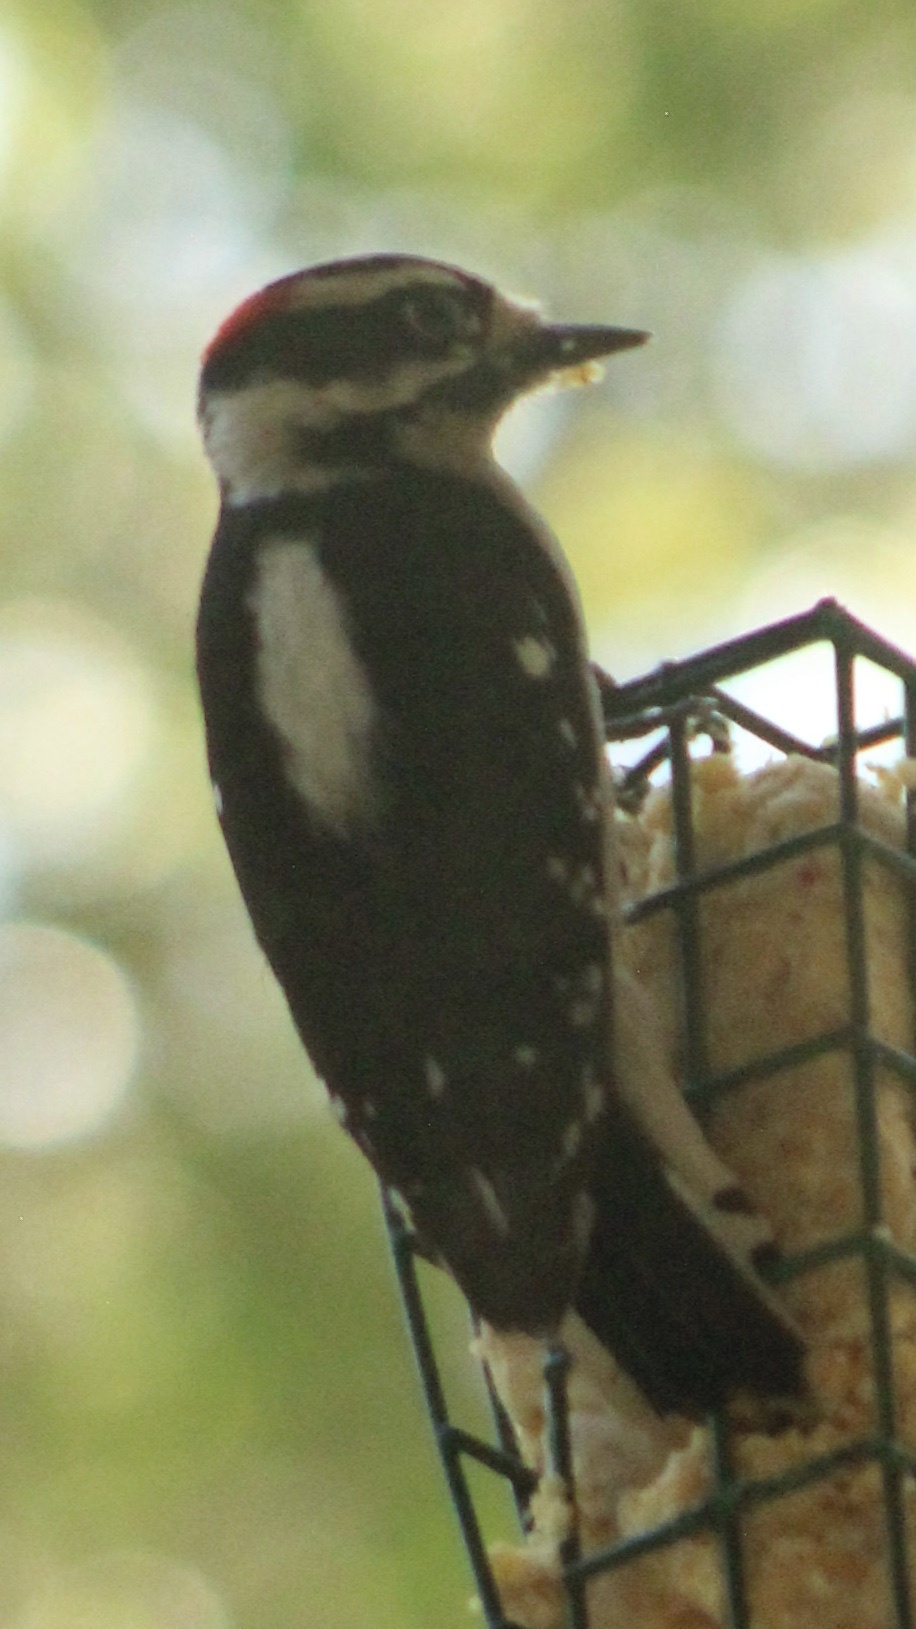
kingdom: Animalia
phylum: Chordata
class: Aves
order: Piciformes
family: Picidae
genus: Dryobates
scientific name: Dryobates pubescens
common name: Downy woodpecker
